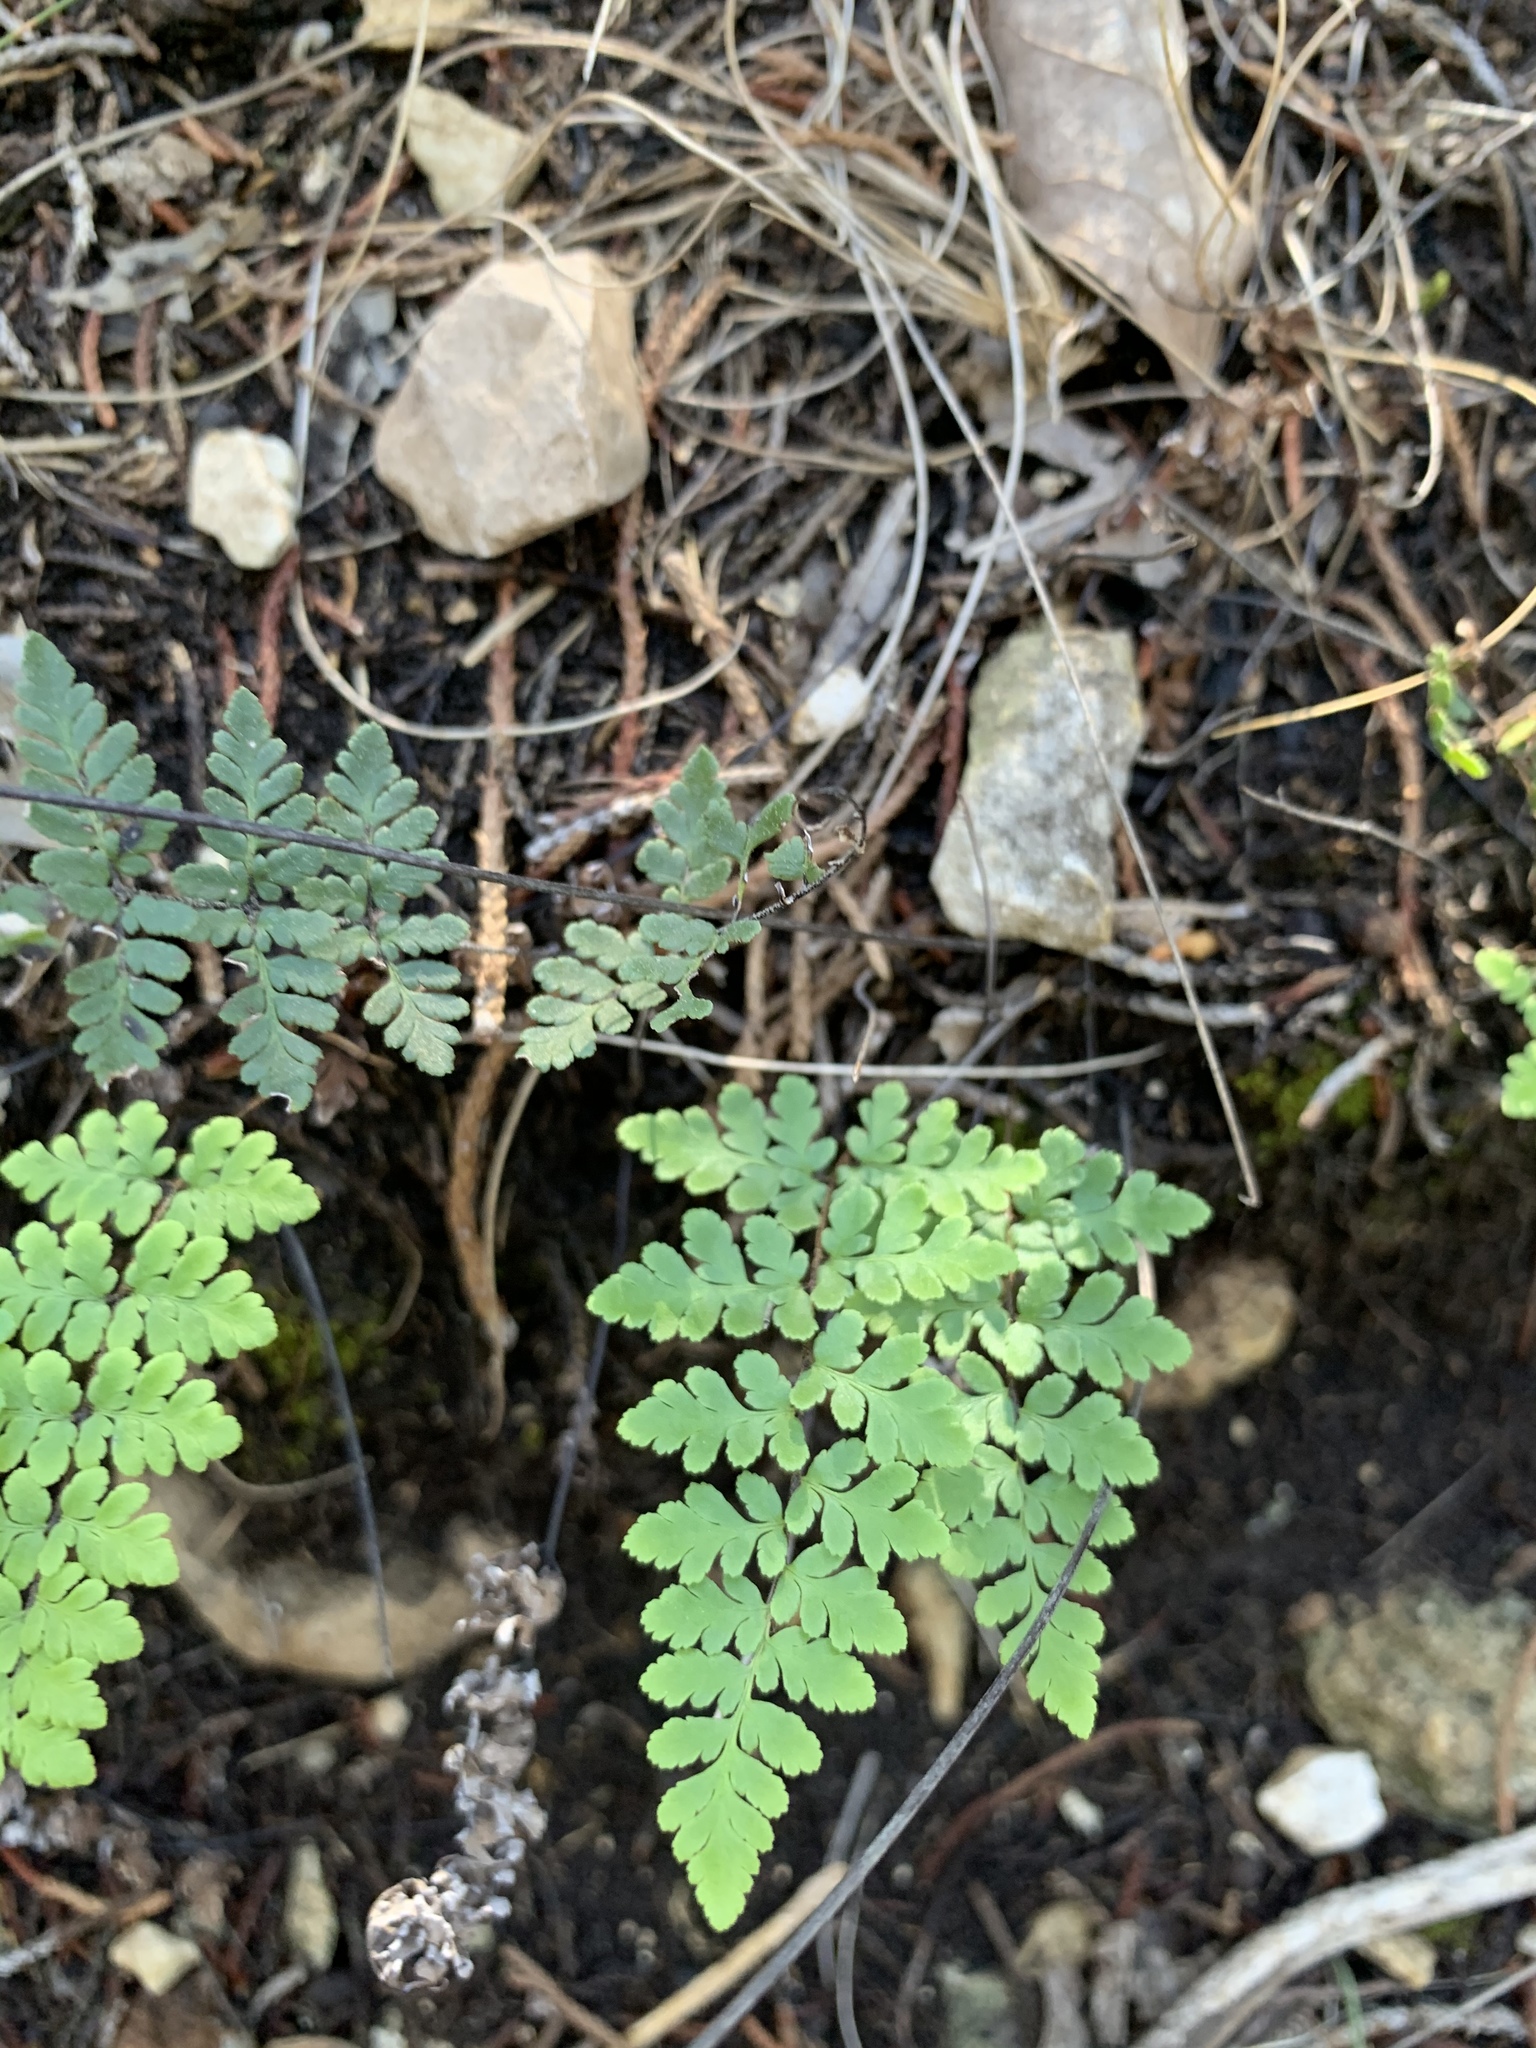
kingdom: Plantae
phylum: Tracheophyta
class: Polypodiopsida
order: Polypodiales
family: Pteridaceae
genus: Myriopteris
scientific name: Myriopteris alabamensis
